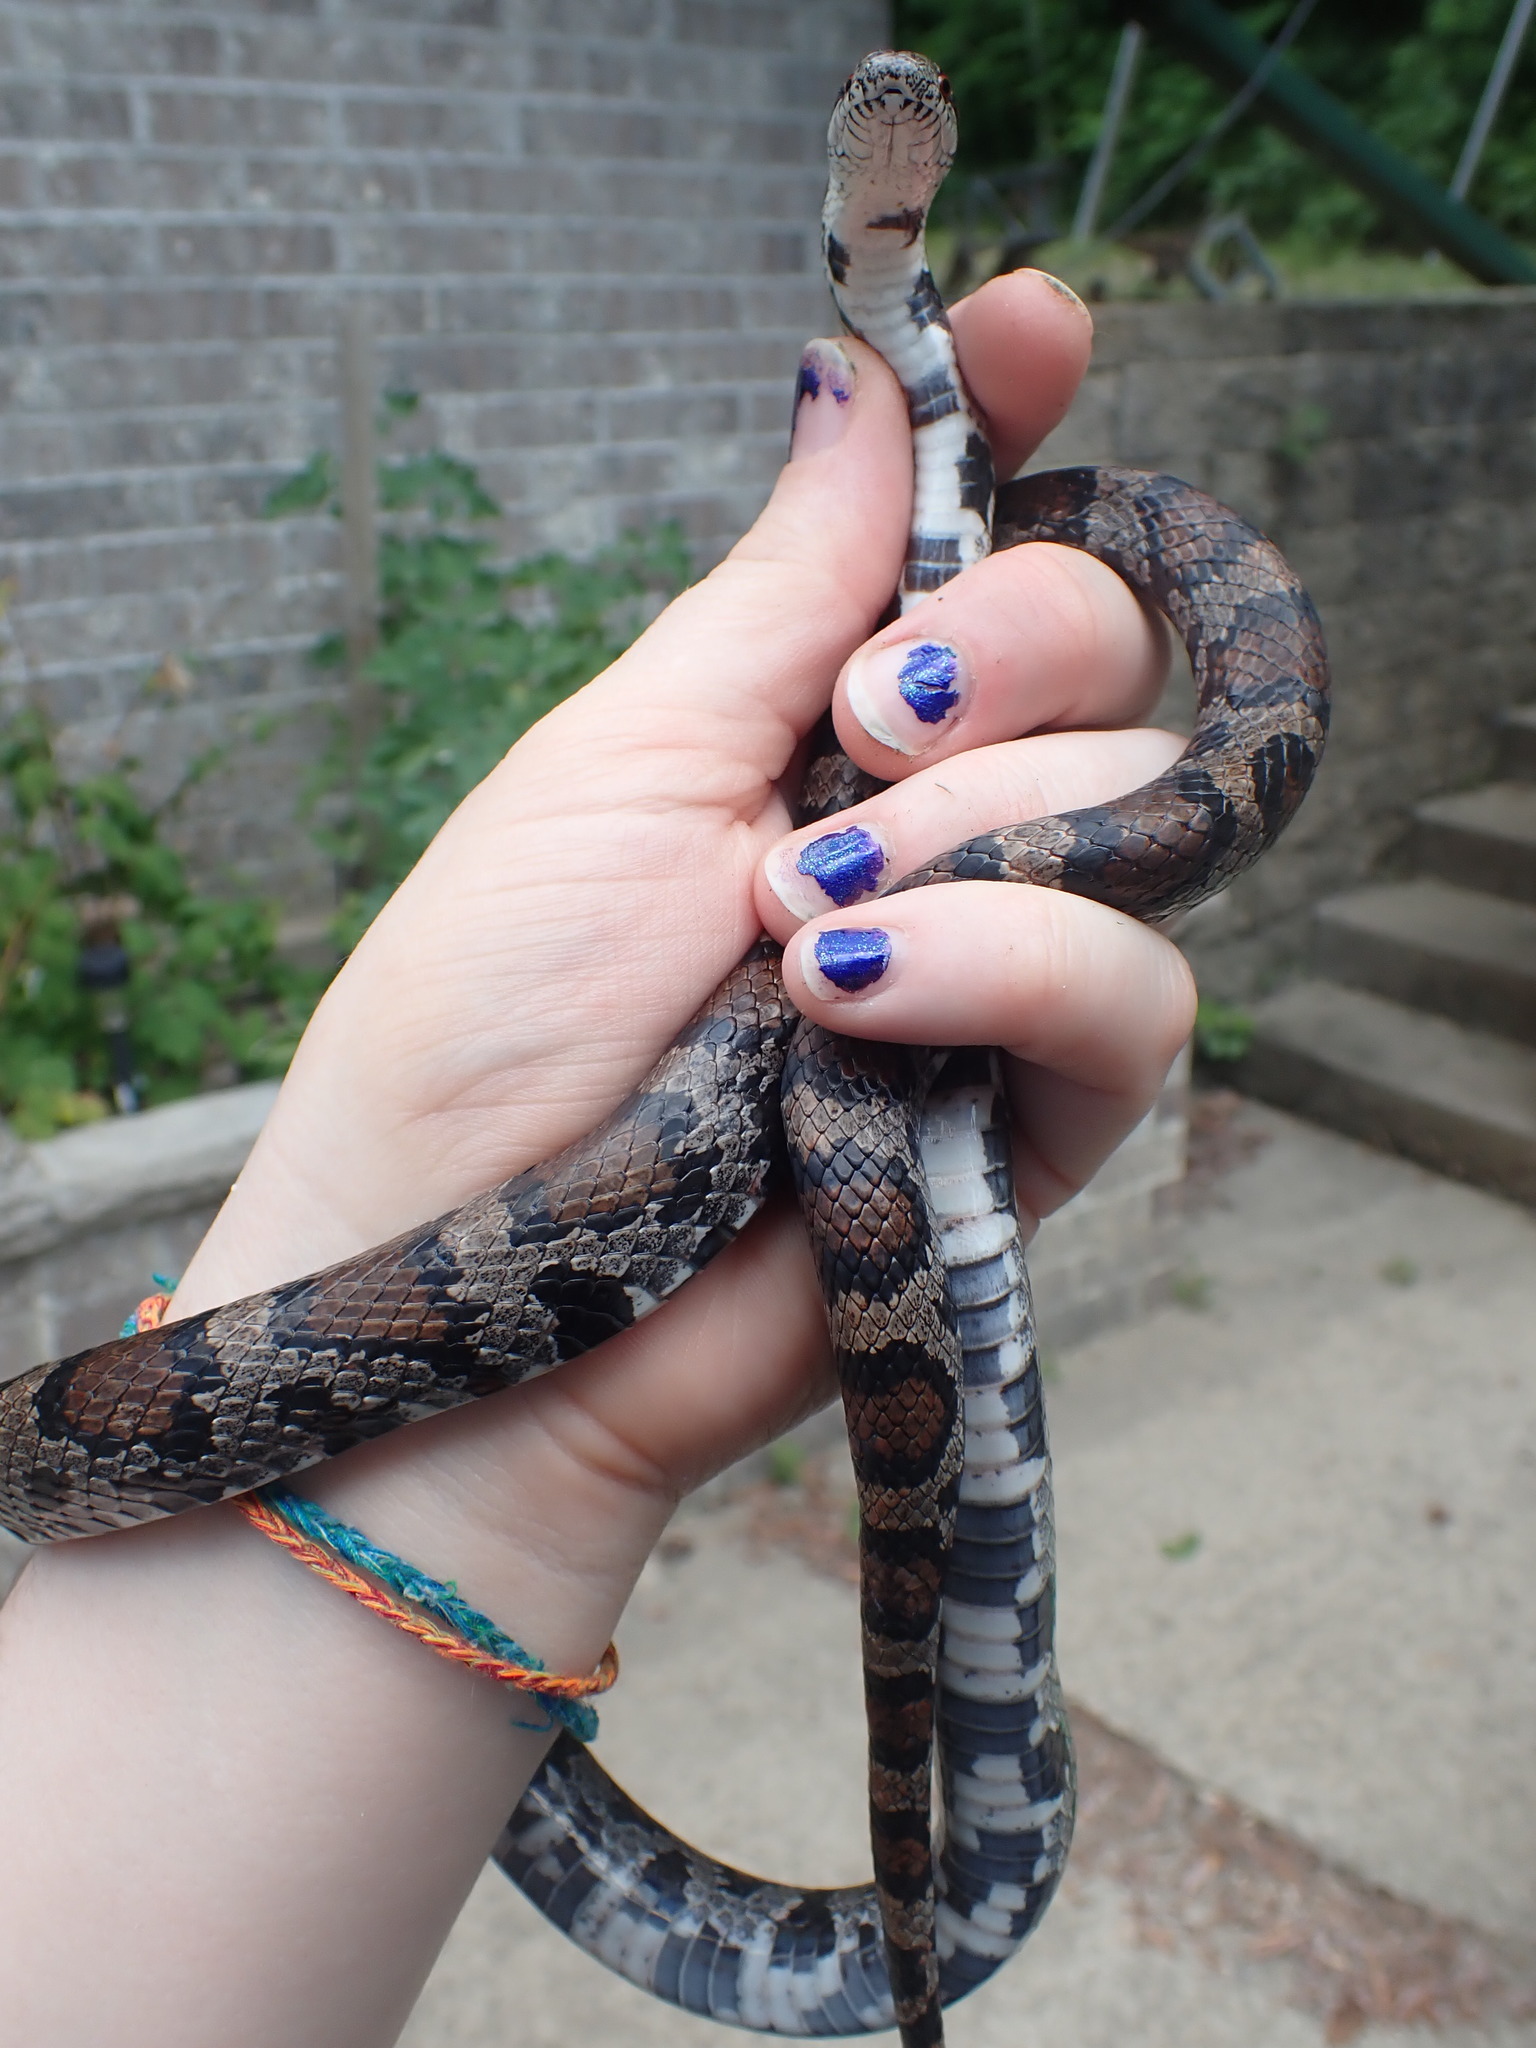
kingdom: Animalia
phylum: Chordata
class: Squamata
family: Colubridae
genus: Lampropeltis
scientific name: Lampropeltis triangulum
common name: Eastern milksnake
